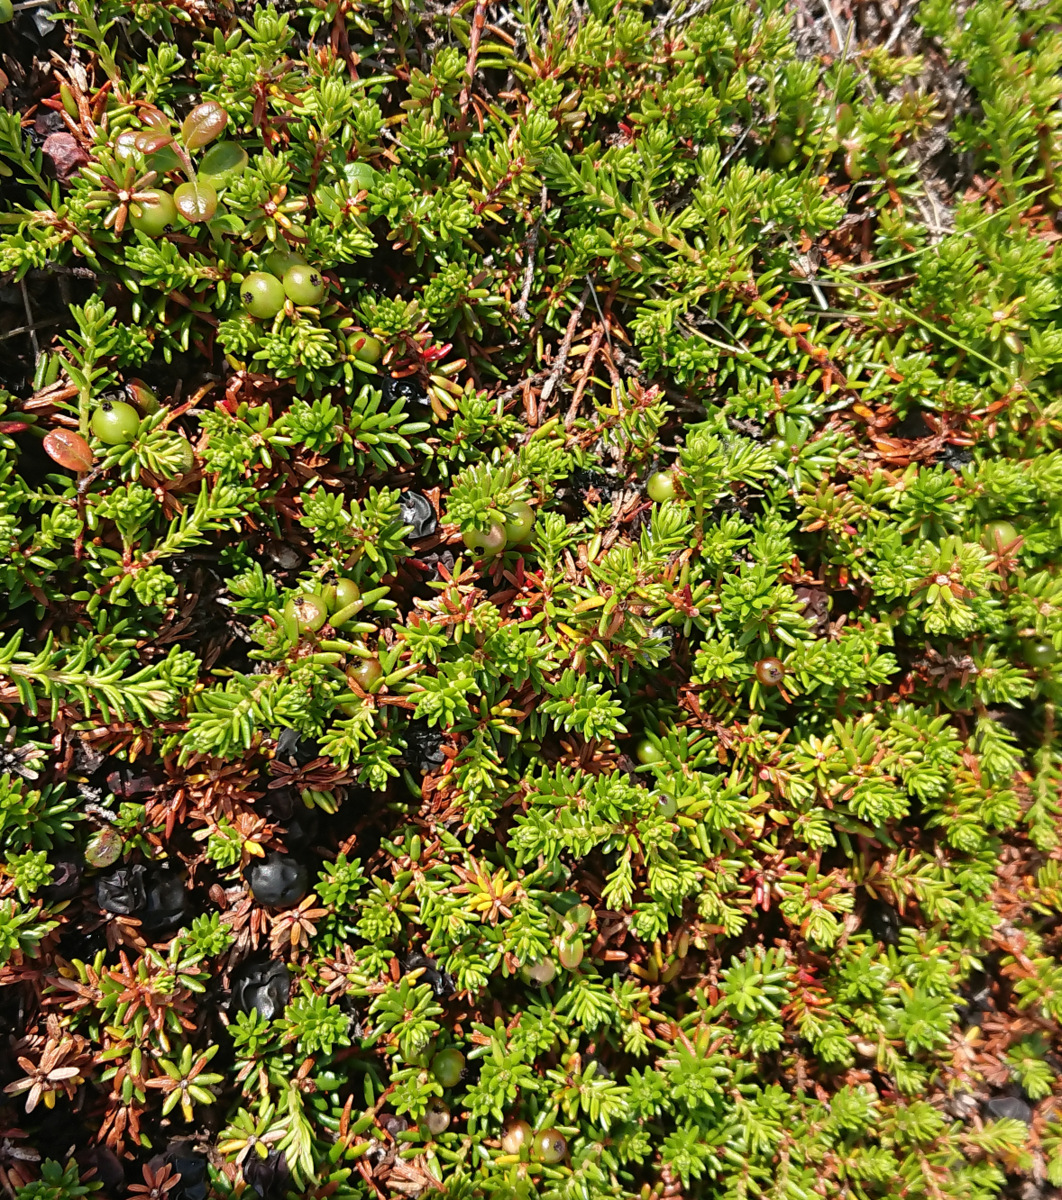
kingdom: Plantae
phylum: Tracheophyta
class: Magnoliopsida
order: Ericales
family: Ericaceae
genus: Empetrum
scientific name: Empetrum nigrum
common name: Black crowberry
